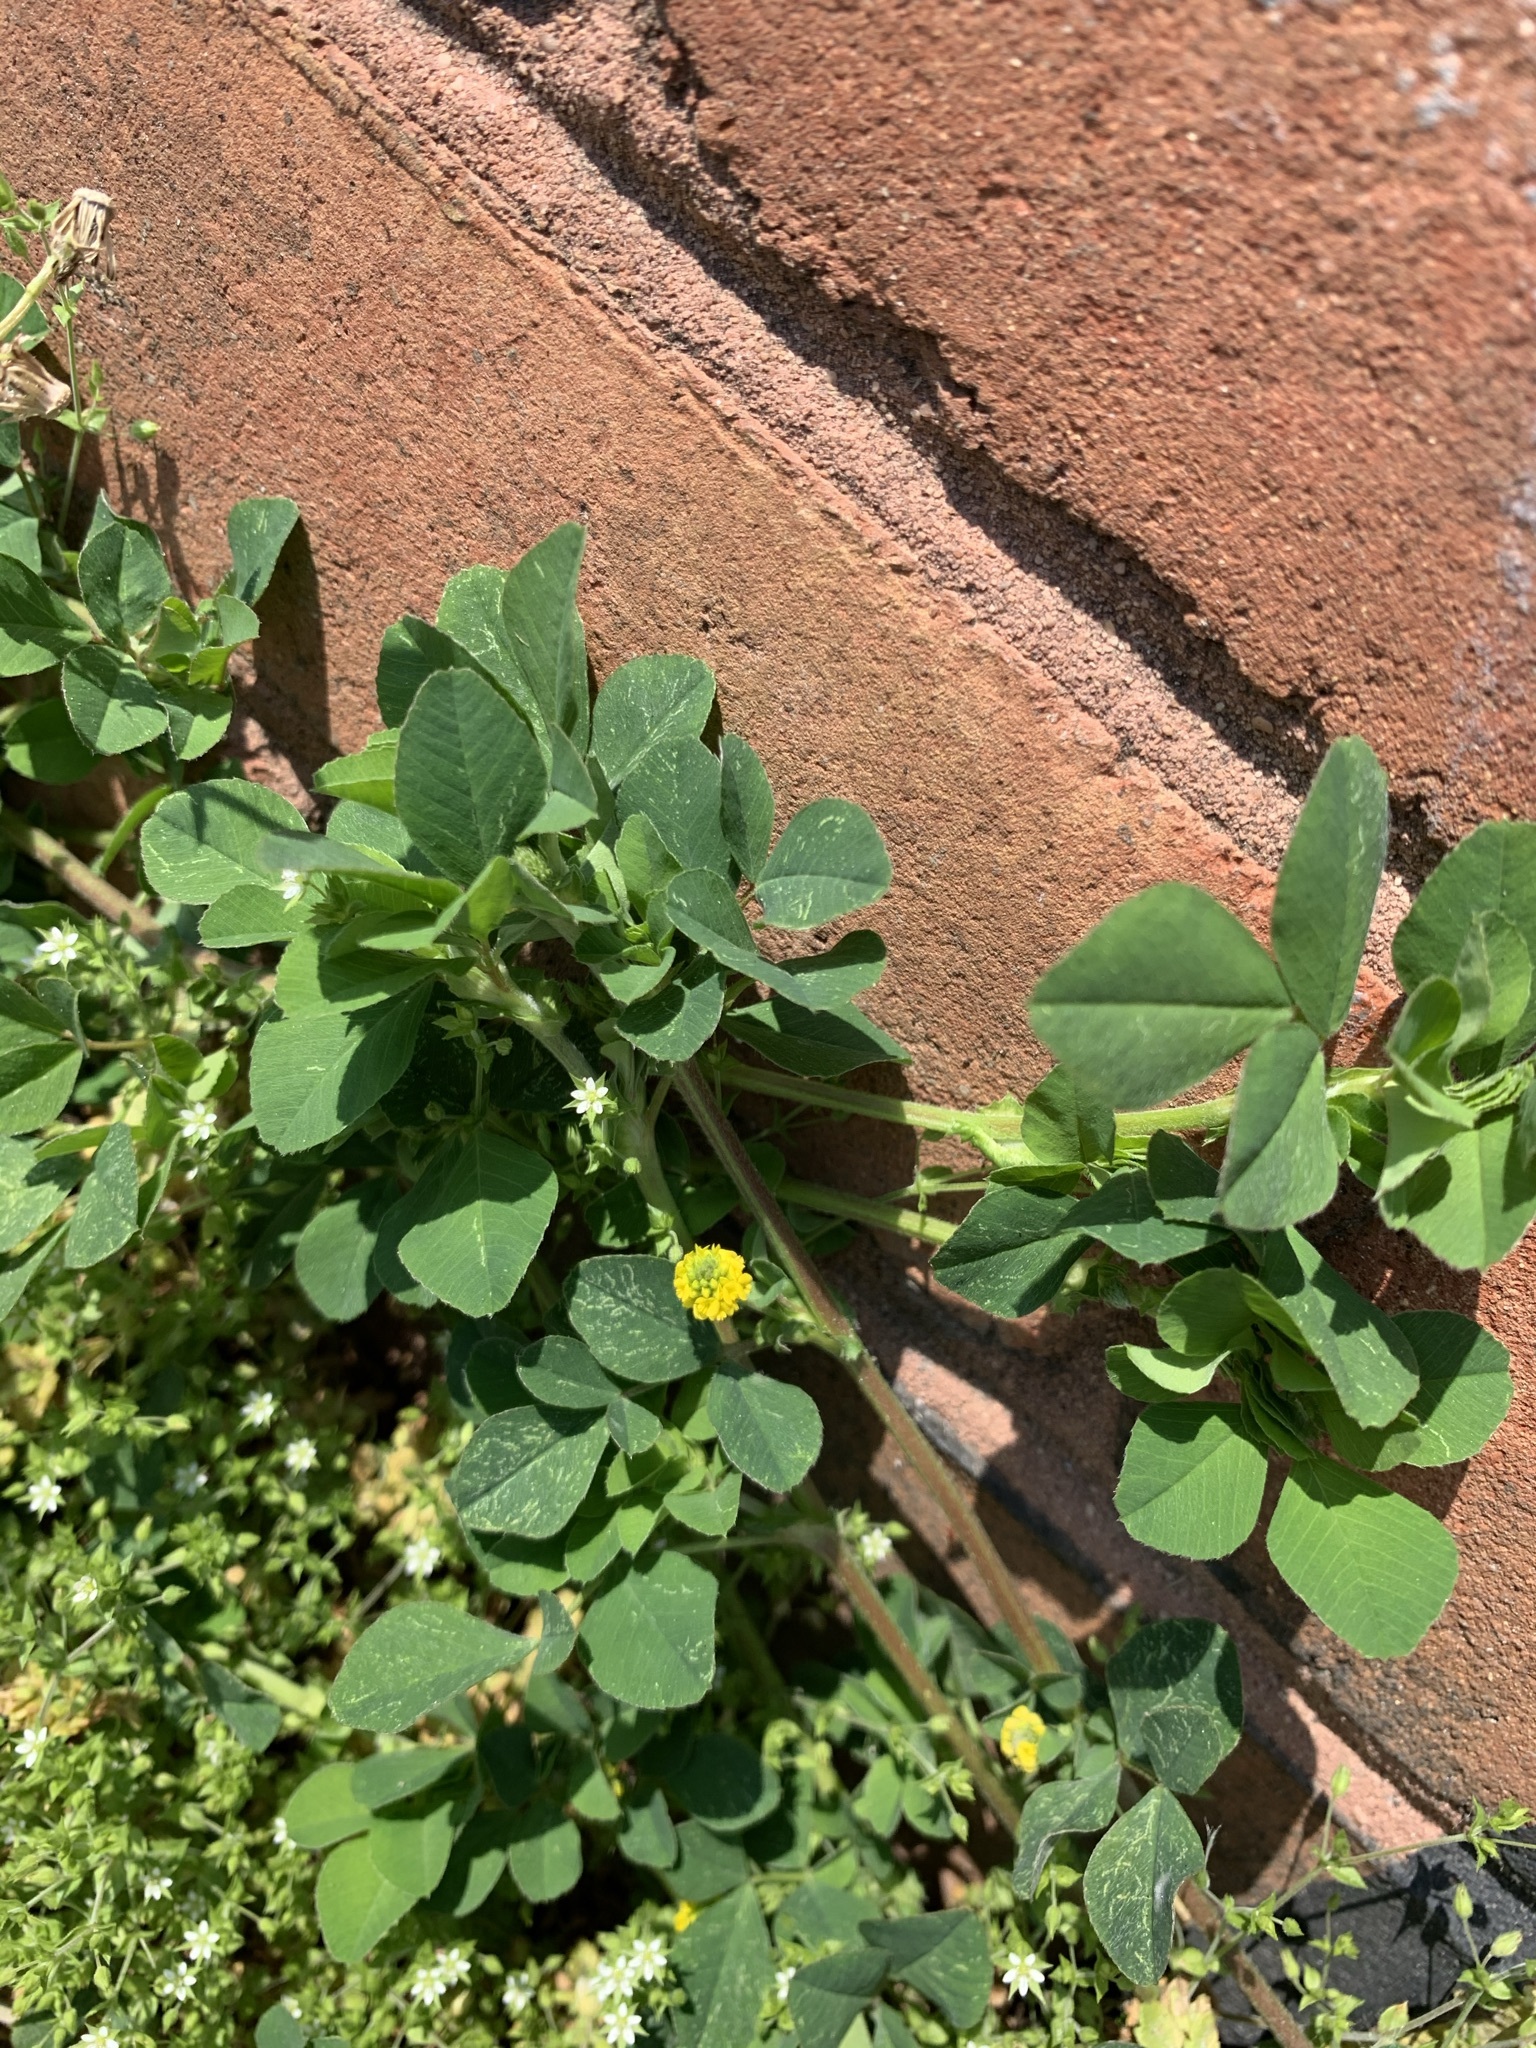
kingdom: Plantae
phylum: Tracheophyta
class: Magnoliopsida
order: Fabales
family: Fabaceae
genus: Medicago
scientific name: Medicago lupulina
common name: Black medick
